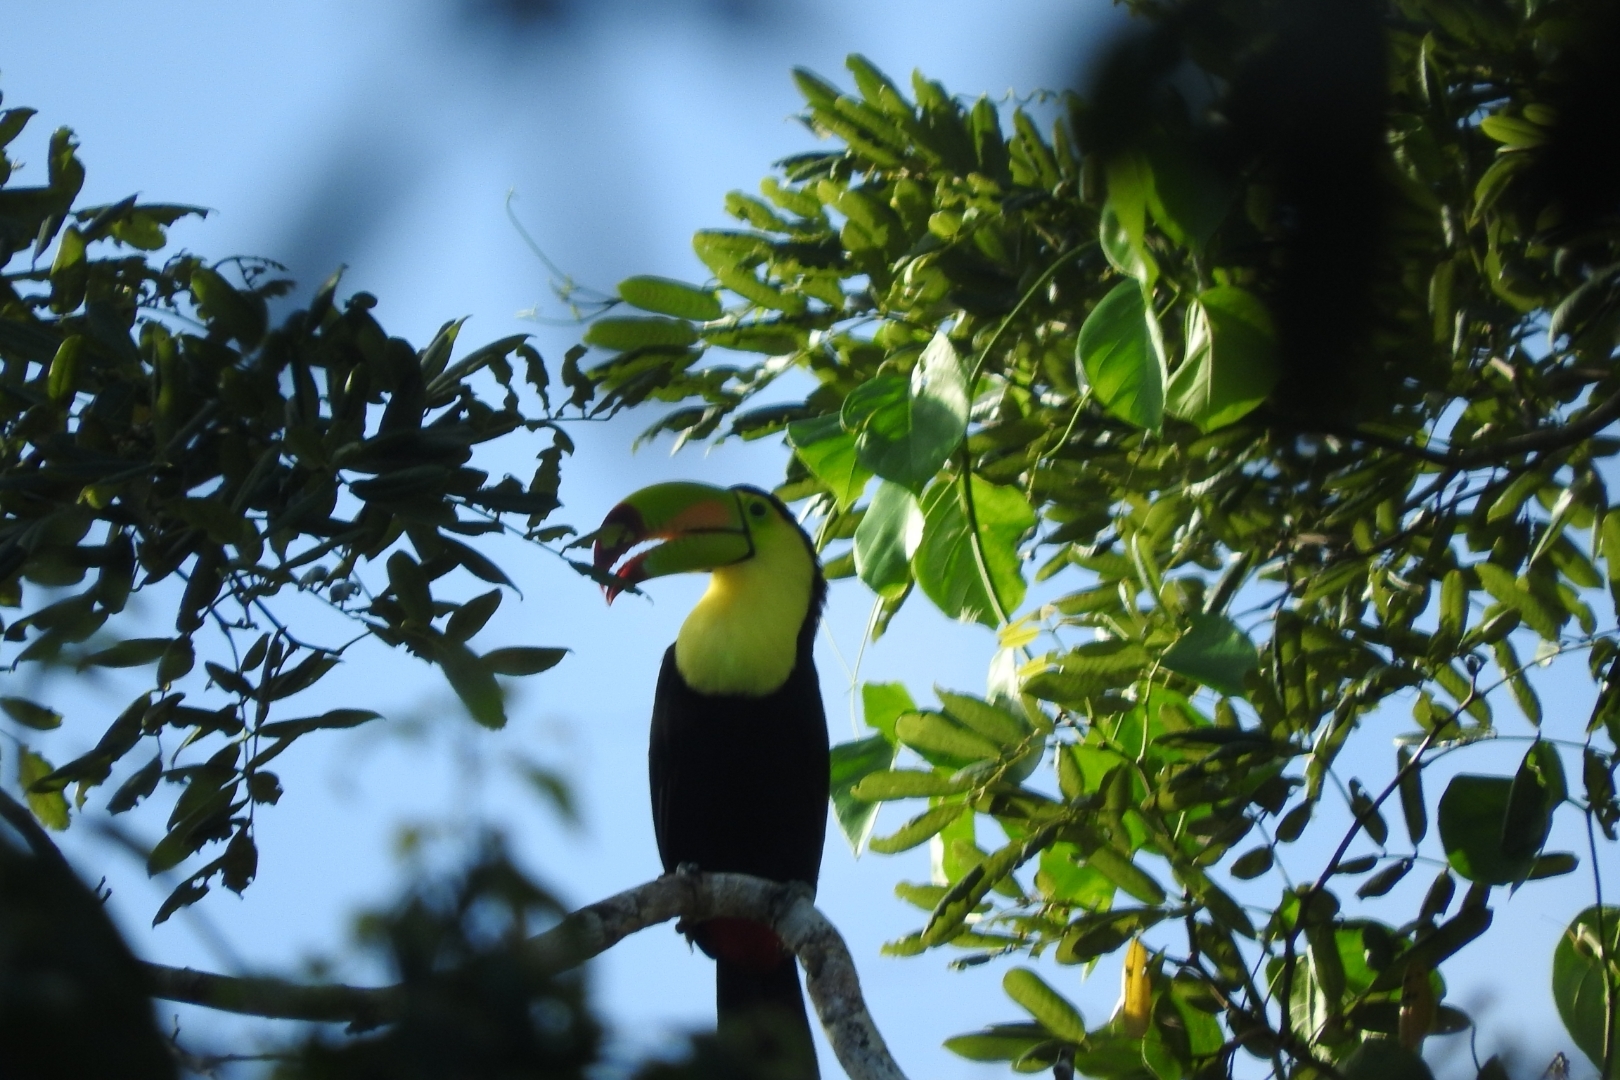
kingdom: Animalia
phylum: Chordata
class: Aves
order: Piciformes
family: Ramphastidae
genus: Ramphastos
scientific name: Ramphastos sulfuratus
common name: Keel-billed toucan
